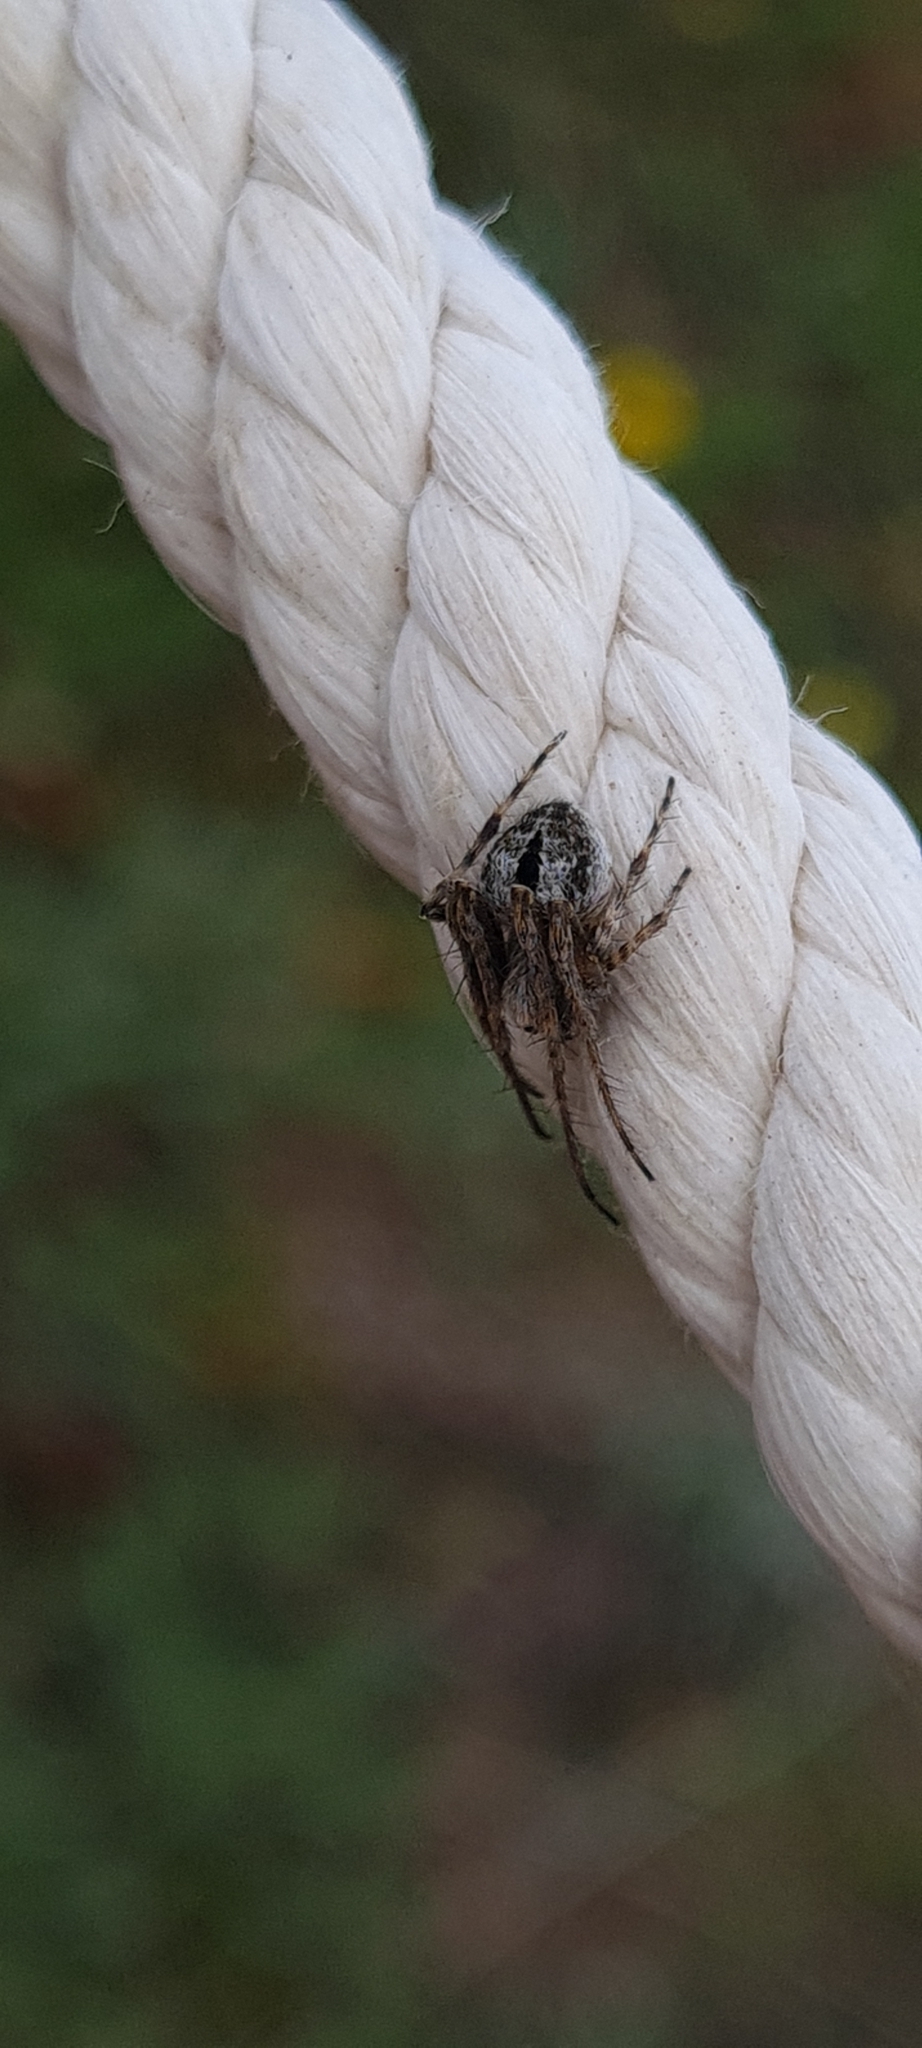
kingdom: Animalia
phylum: Arthropoda
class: Arachnida
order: Araneae
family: Araneidae
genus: Agalenatea
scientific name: Agalenatea redii
